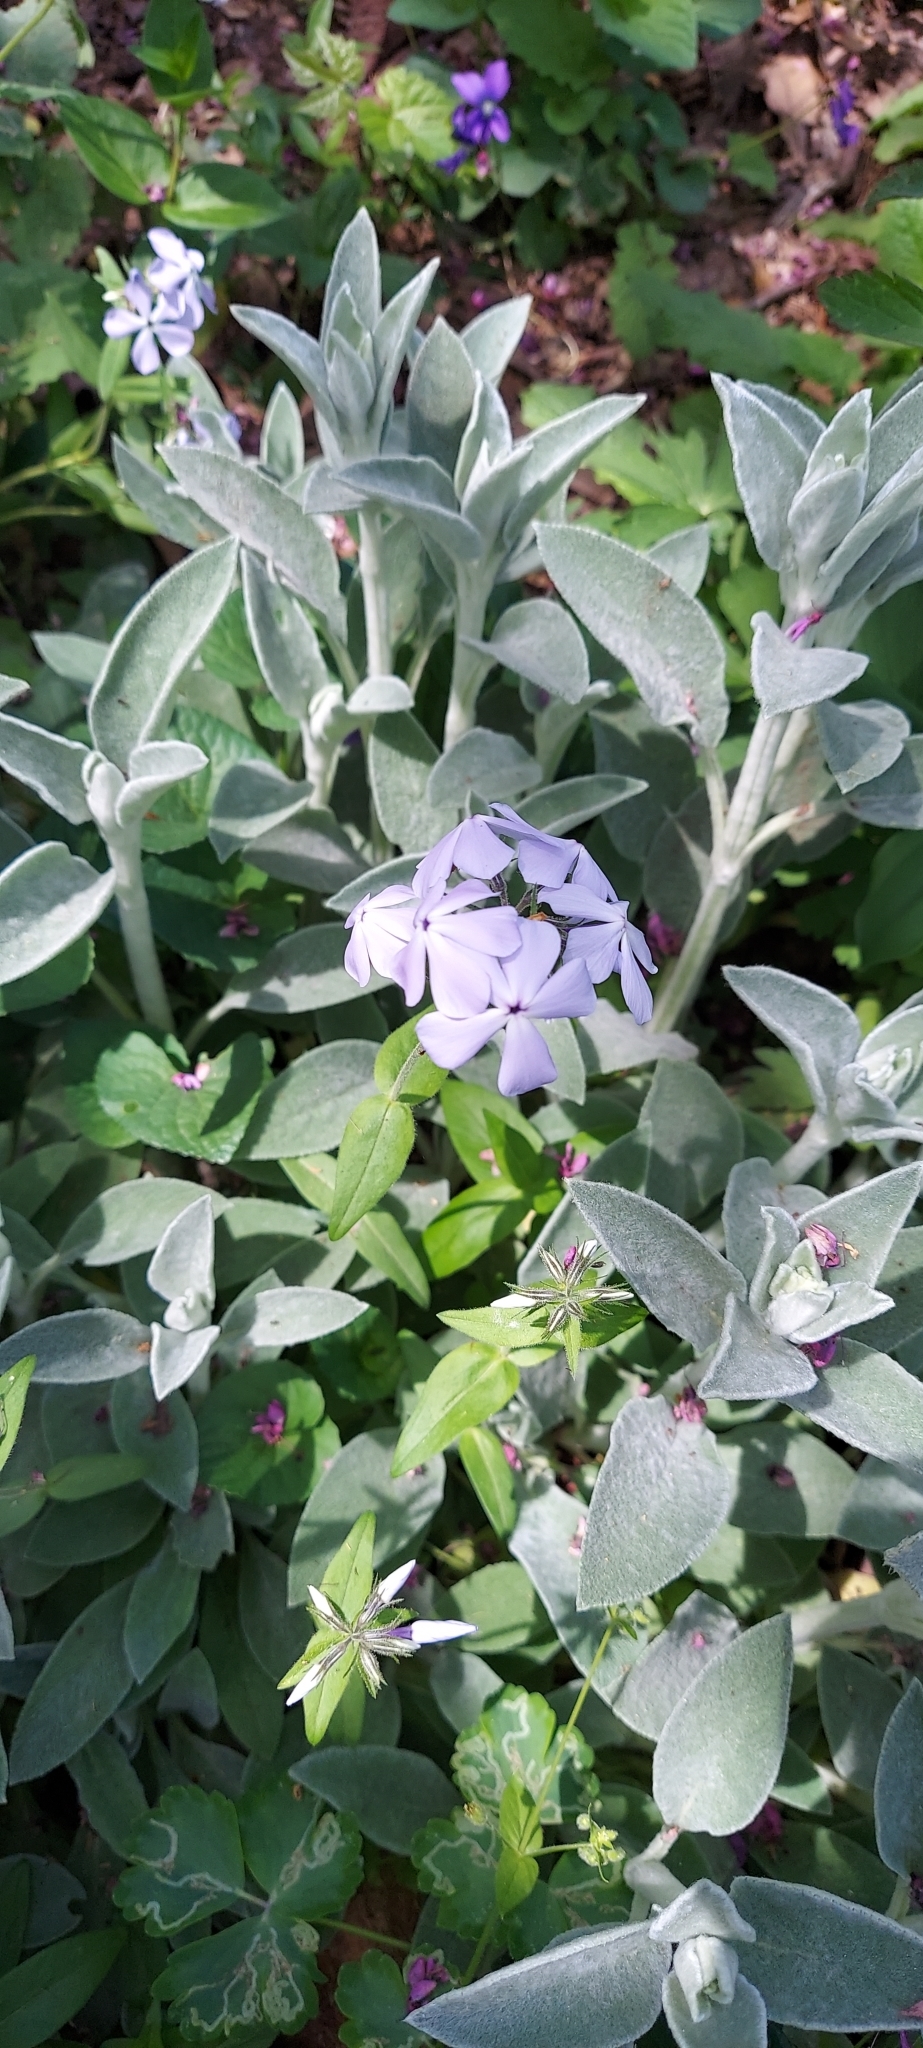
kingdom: Plantae
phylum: Tracheophyta
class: Magnoliopsida
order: Ericales
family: Polemoniaceae
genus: Phlox
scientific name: Phlox divaricata
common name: Blue phlox
